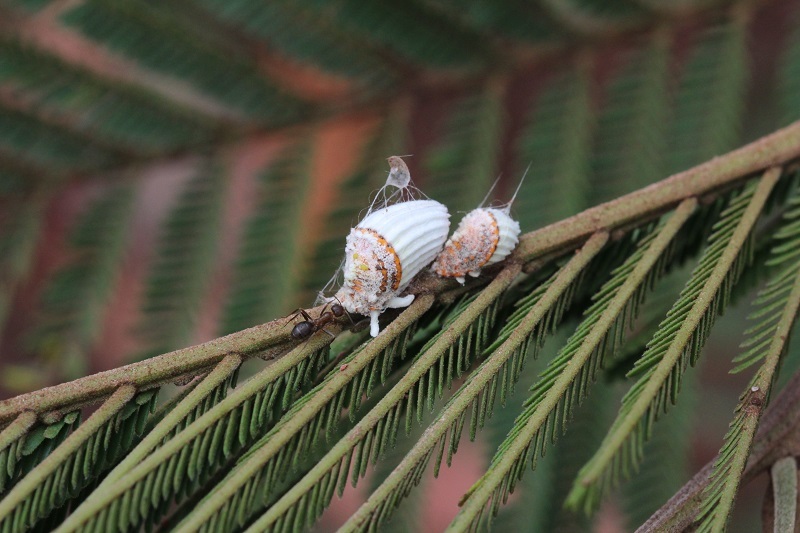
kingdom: Animalia
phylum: Arthropoda
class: Insecta
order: Hymenoptera
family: Formicidae
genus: Anoplolepis
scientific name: Anoplolepis steingroeveri
